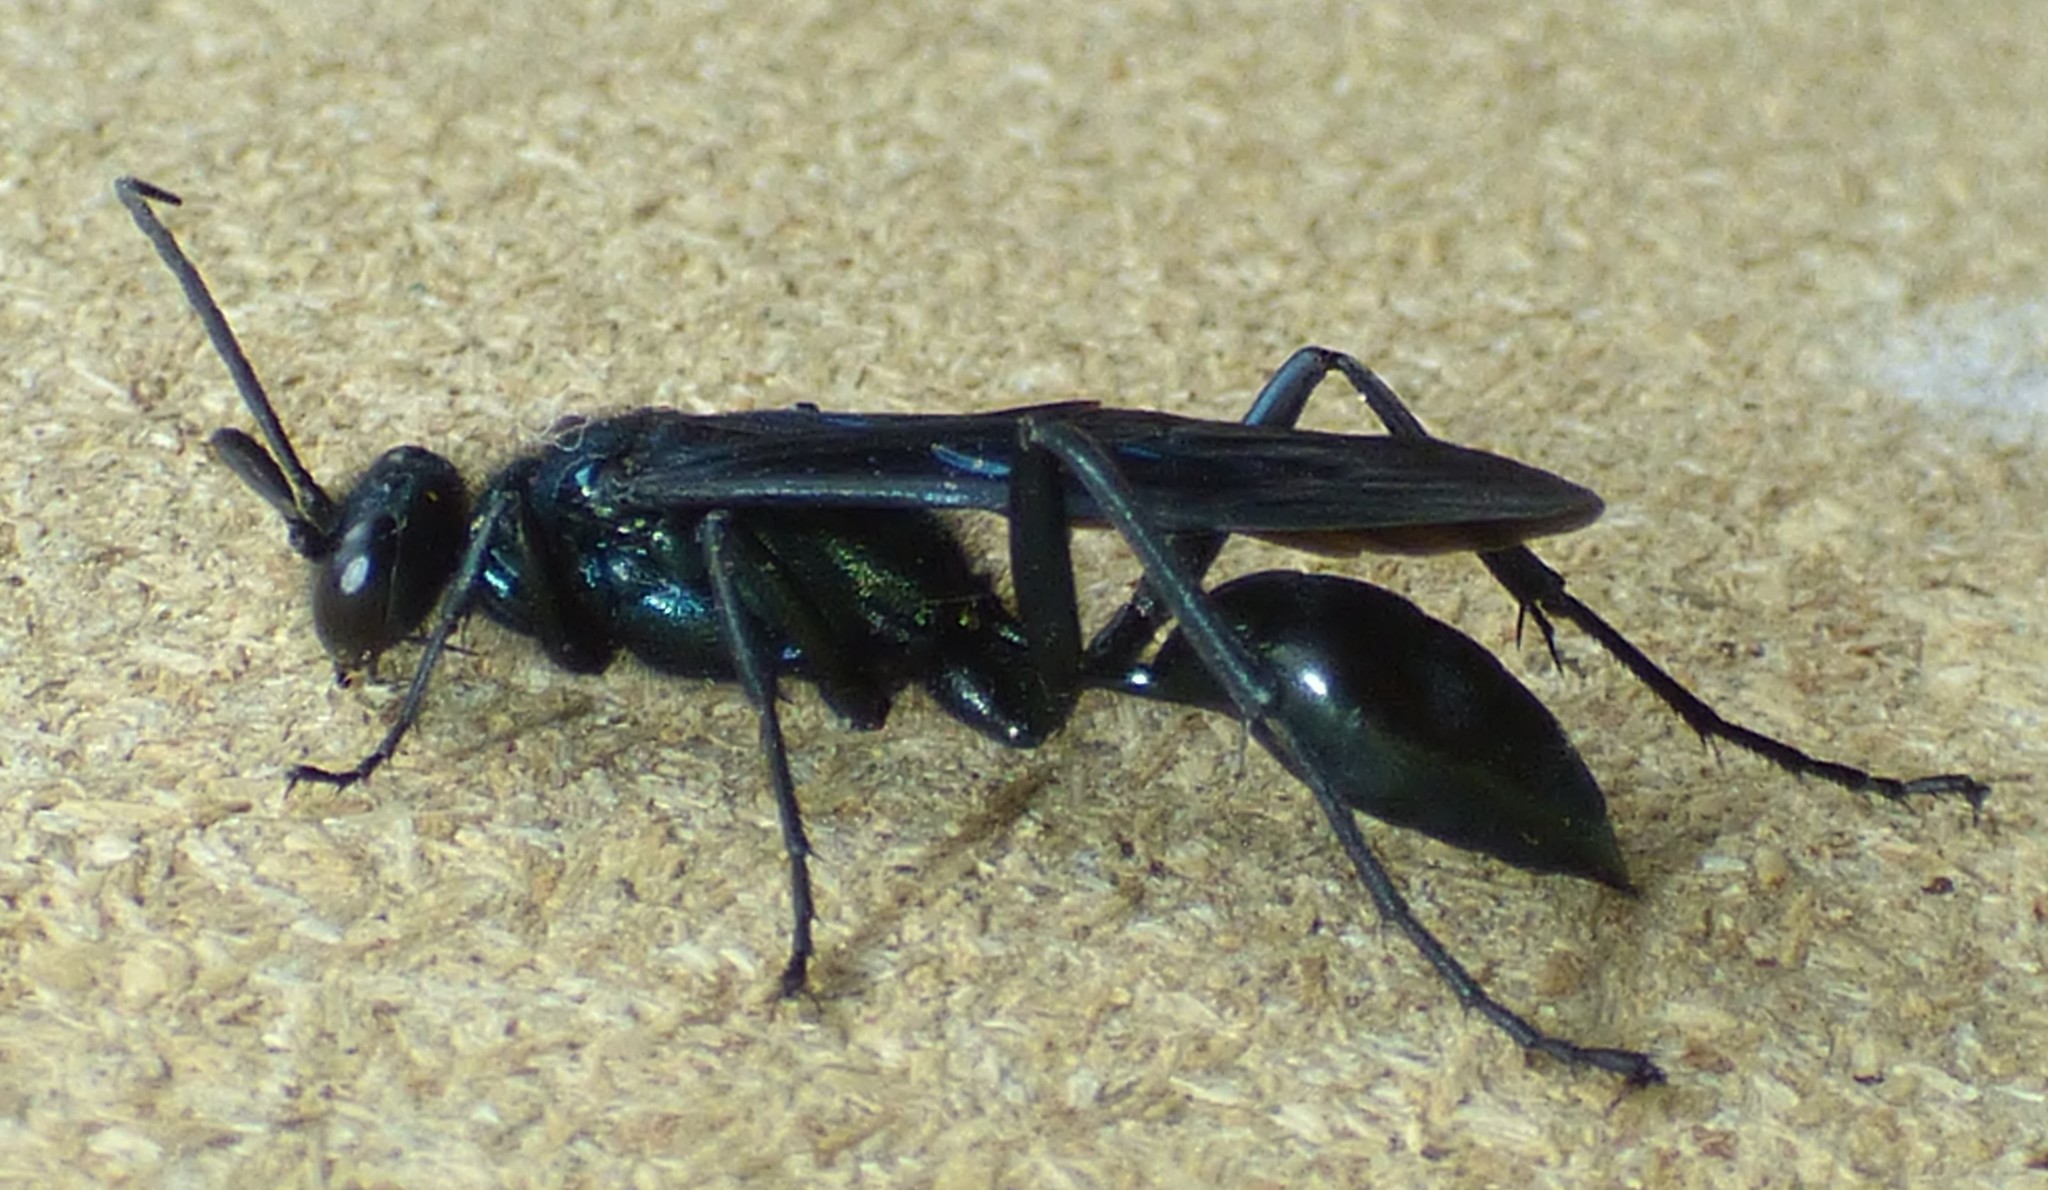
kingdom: Animalia
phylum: Arthropoda
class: Insecta
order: Hymenoptera
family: Sphecidae
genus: Chalybion
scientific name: Chalybion californicum
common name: Mud dauber
